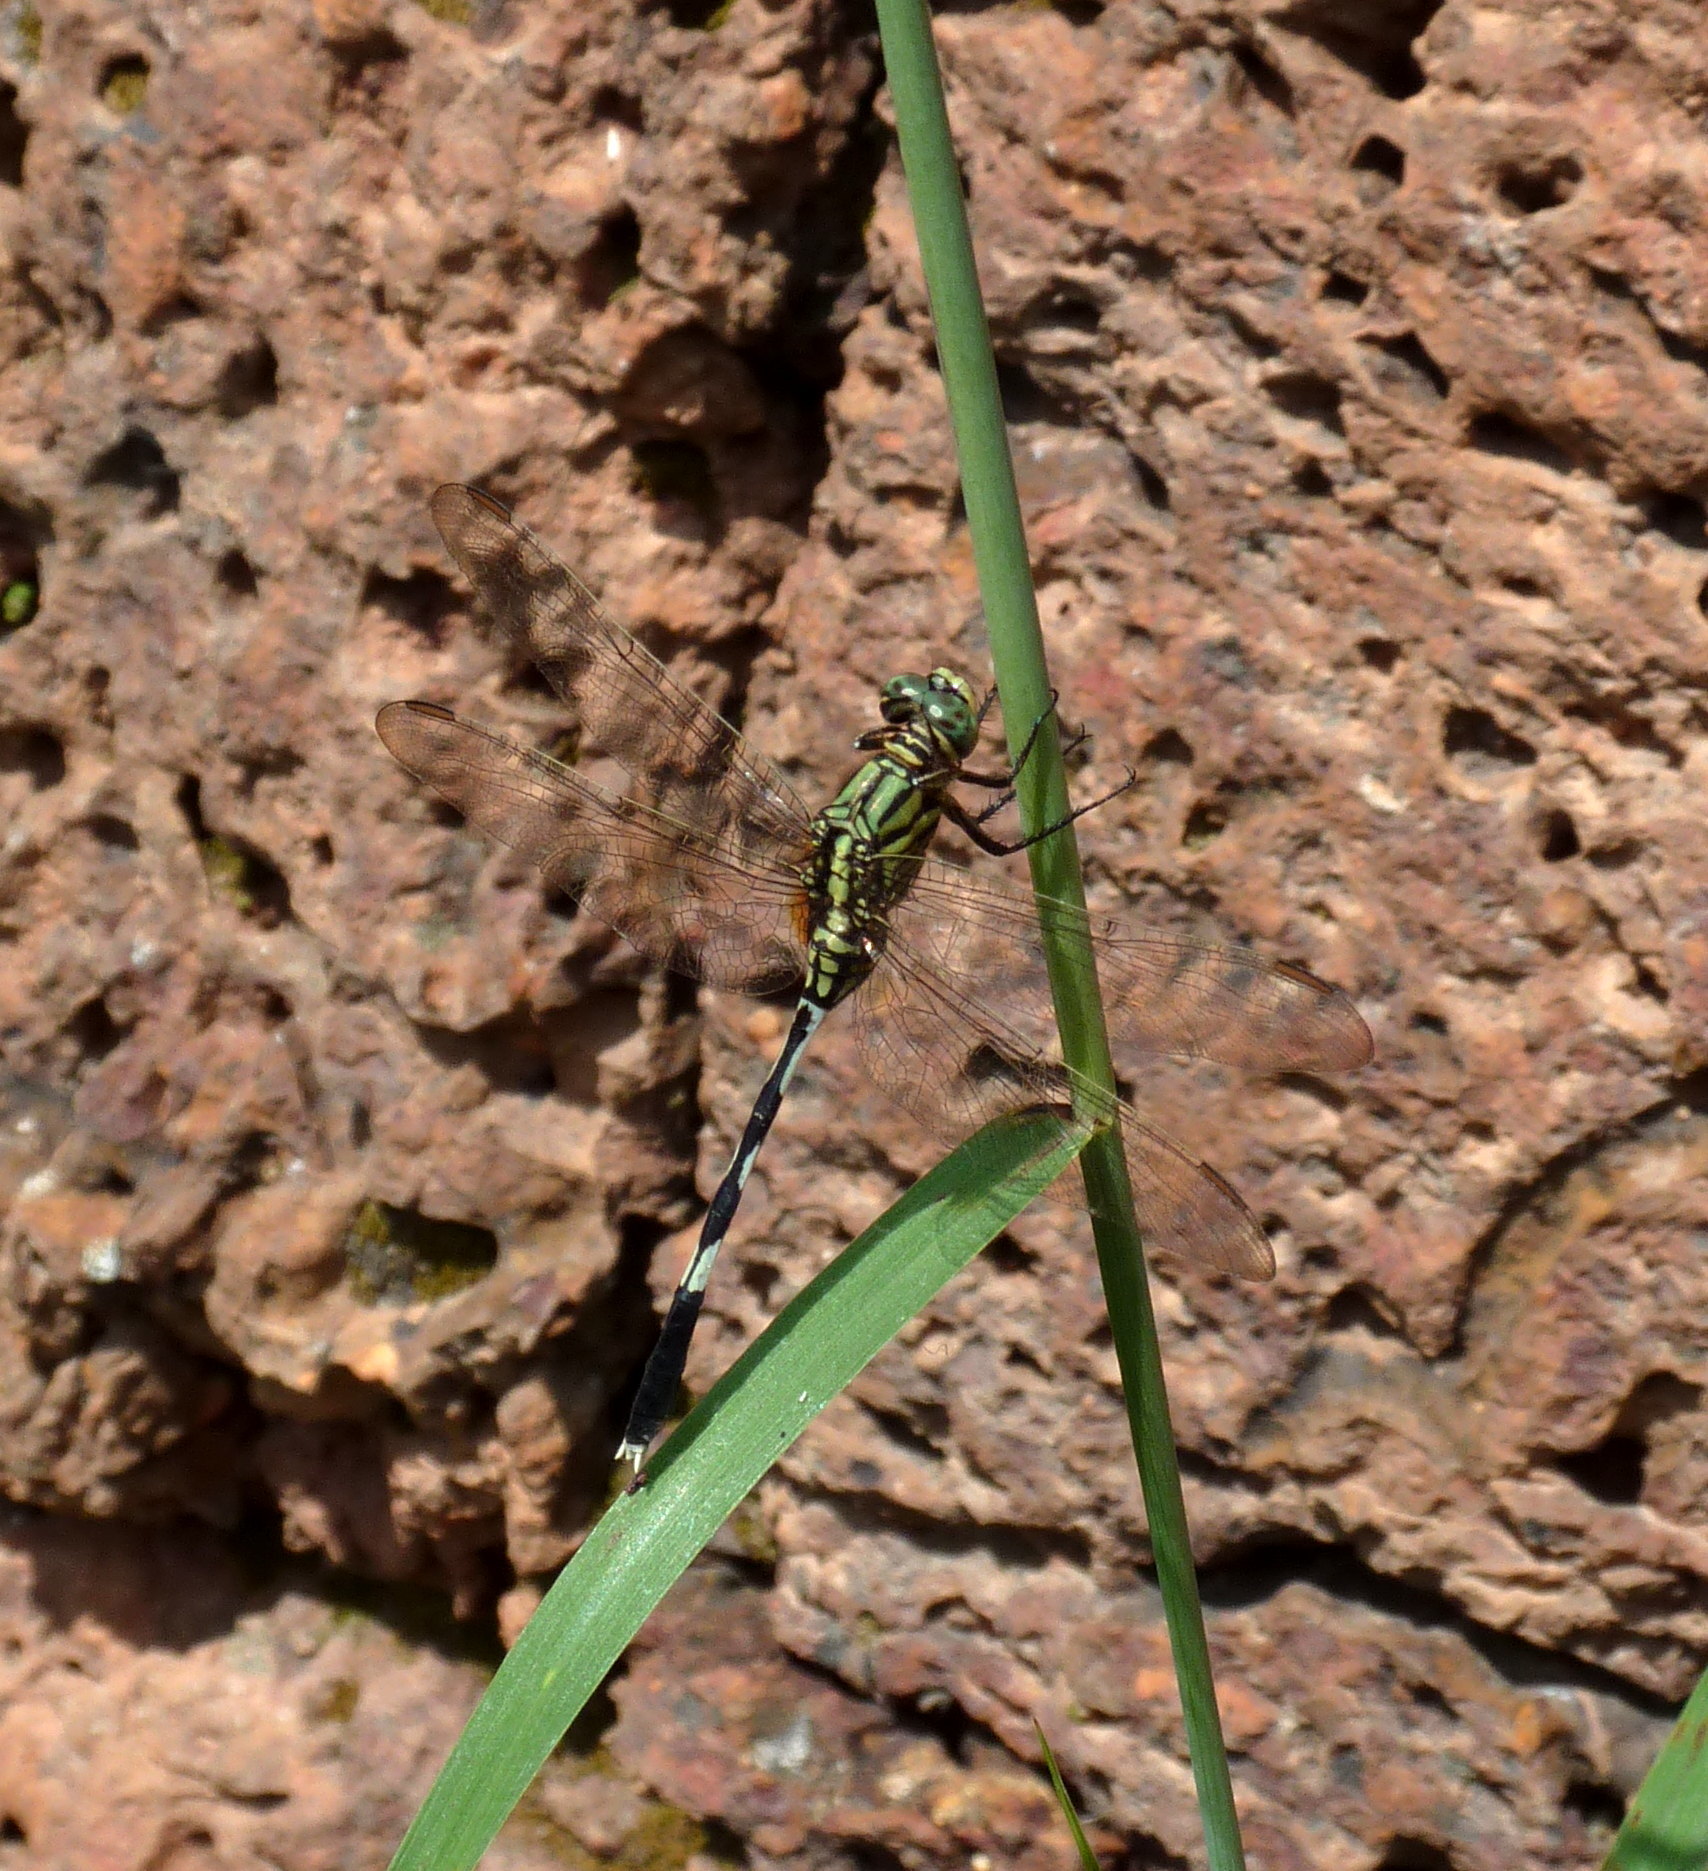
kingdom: Animalia
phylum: Arthropoda
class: Insecta
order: Odonata
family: Libellulidae
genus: Orthetrum
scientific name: Orthetrum sabina
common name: Slender skimmer
